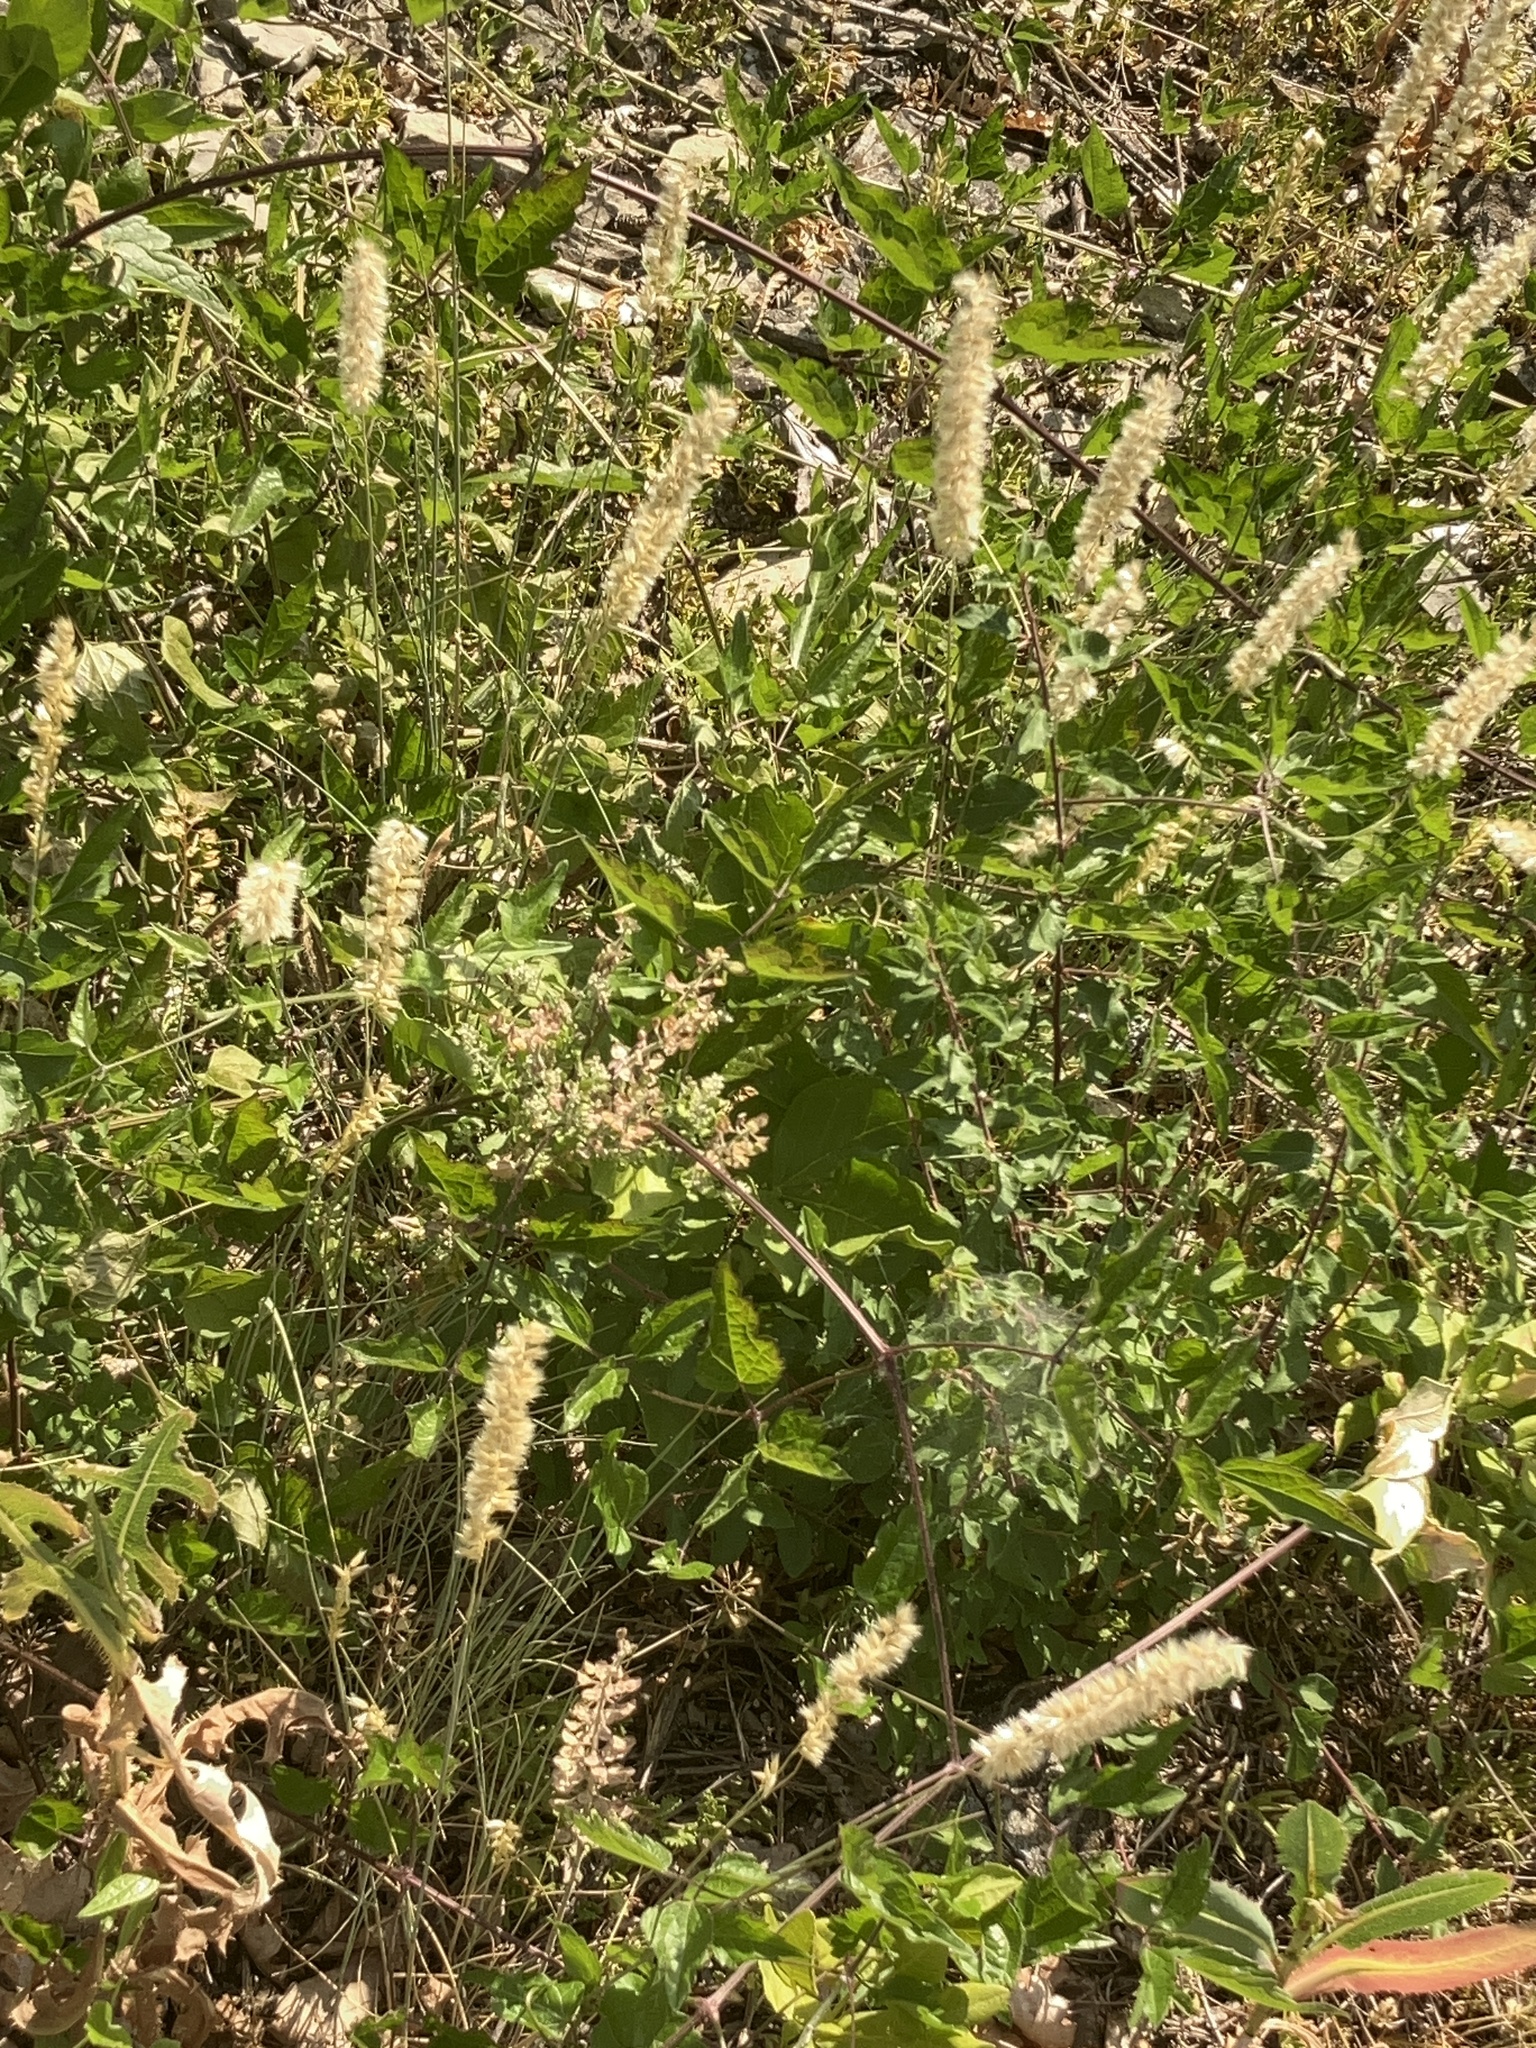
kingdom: Plantae
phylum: Tracheophyta
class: Liliopsida
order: Poales
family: Poaceae
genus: Melica
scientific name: Melica ciliata
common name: Hairy melicgrass
